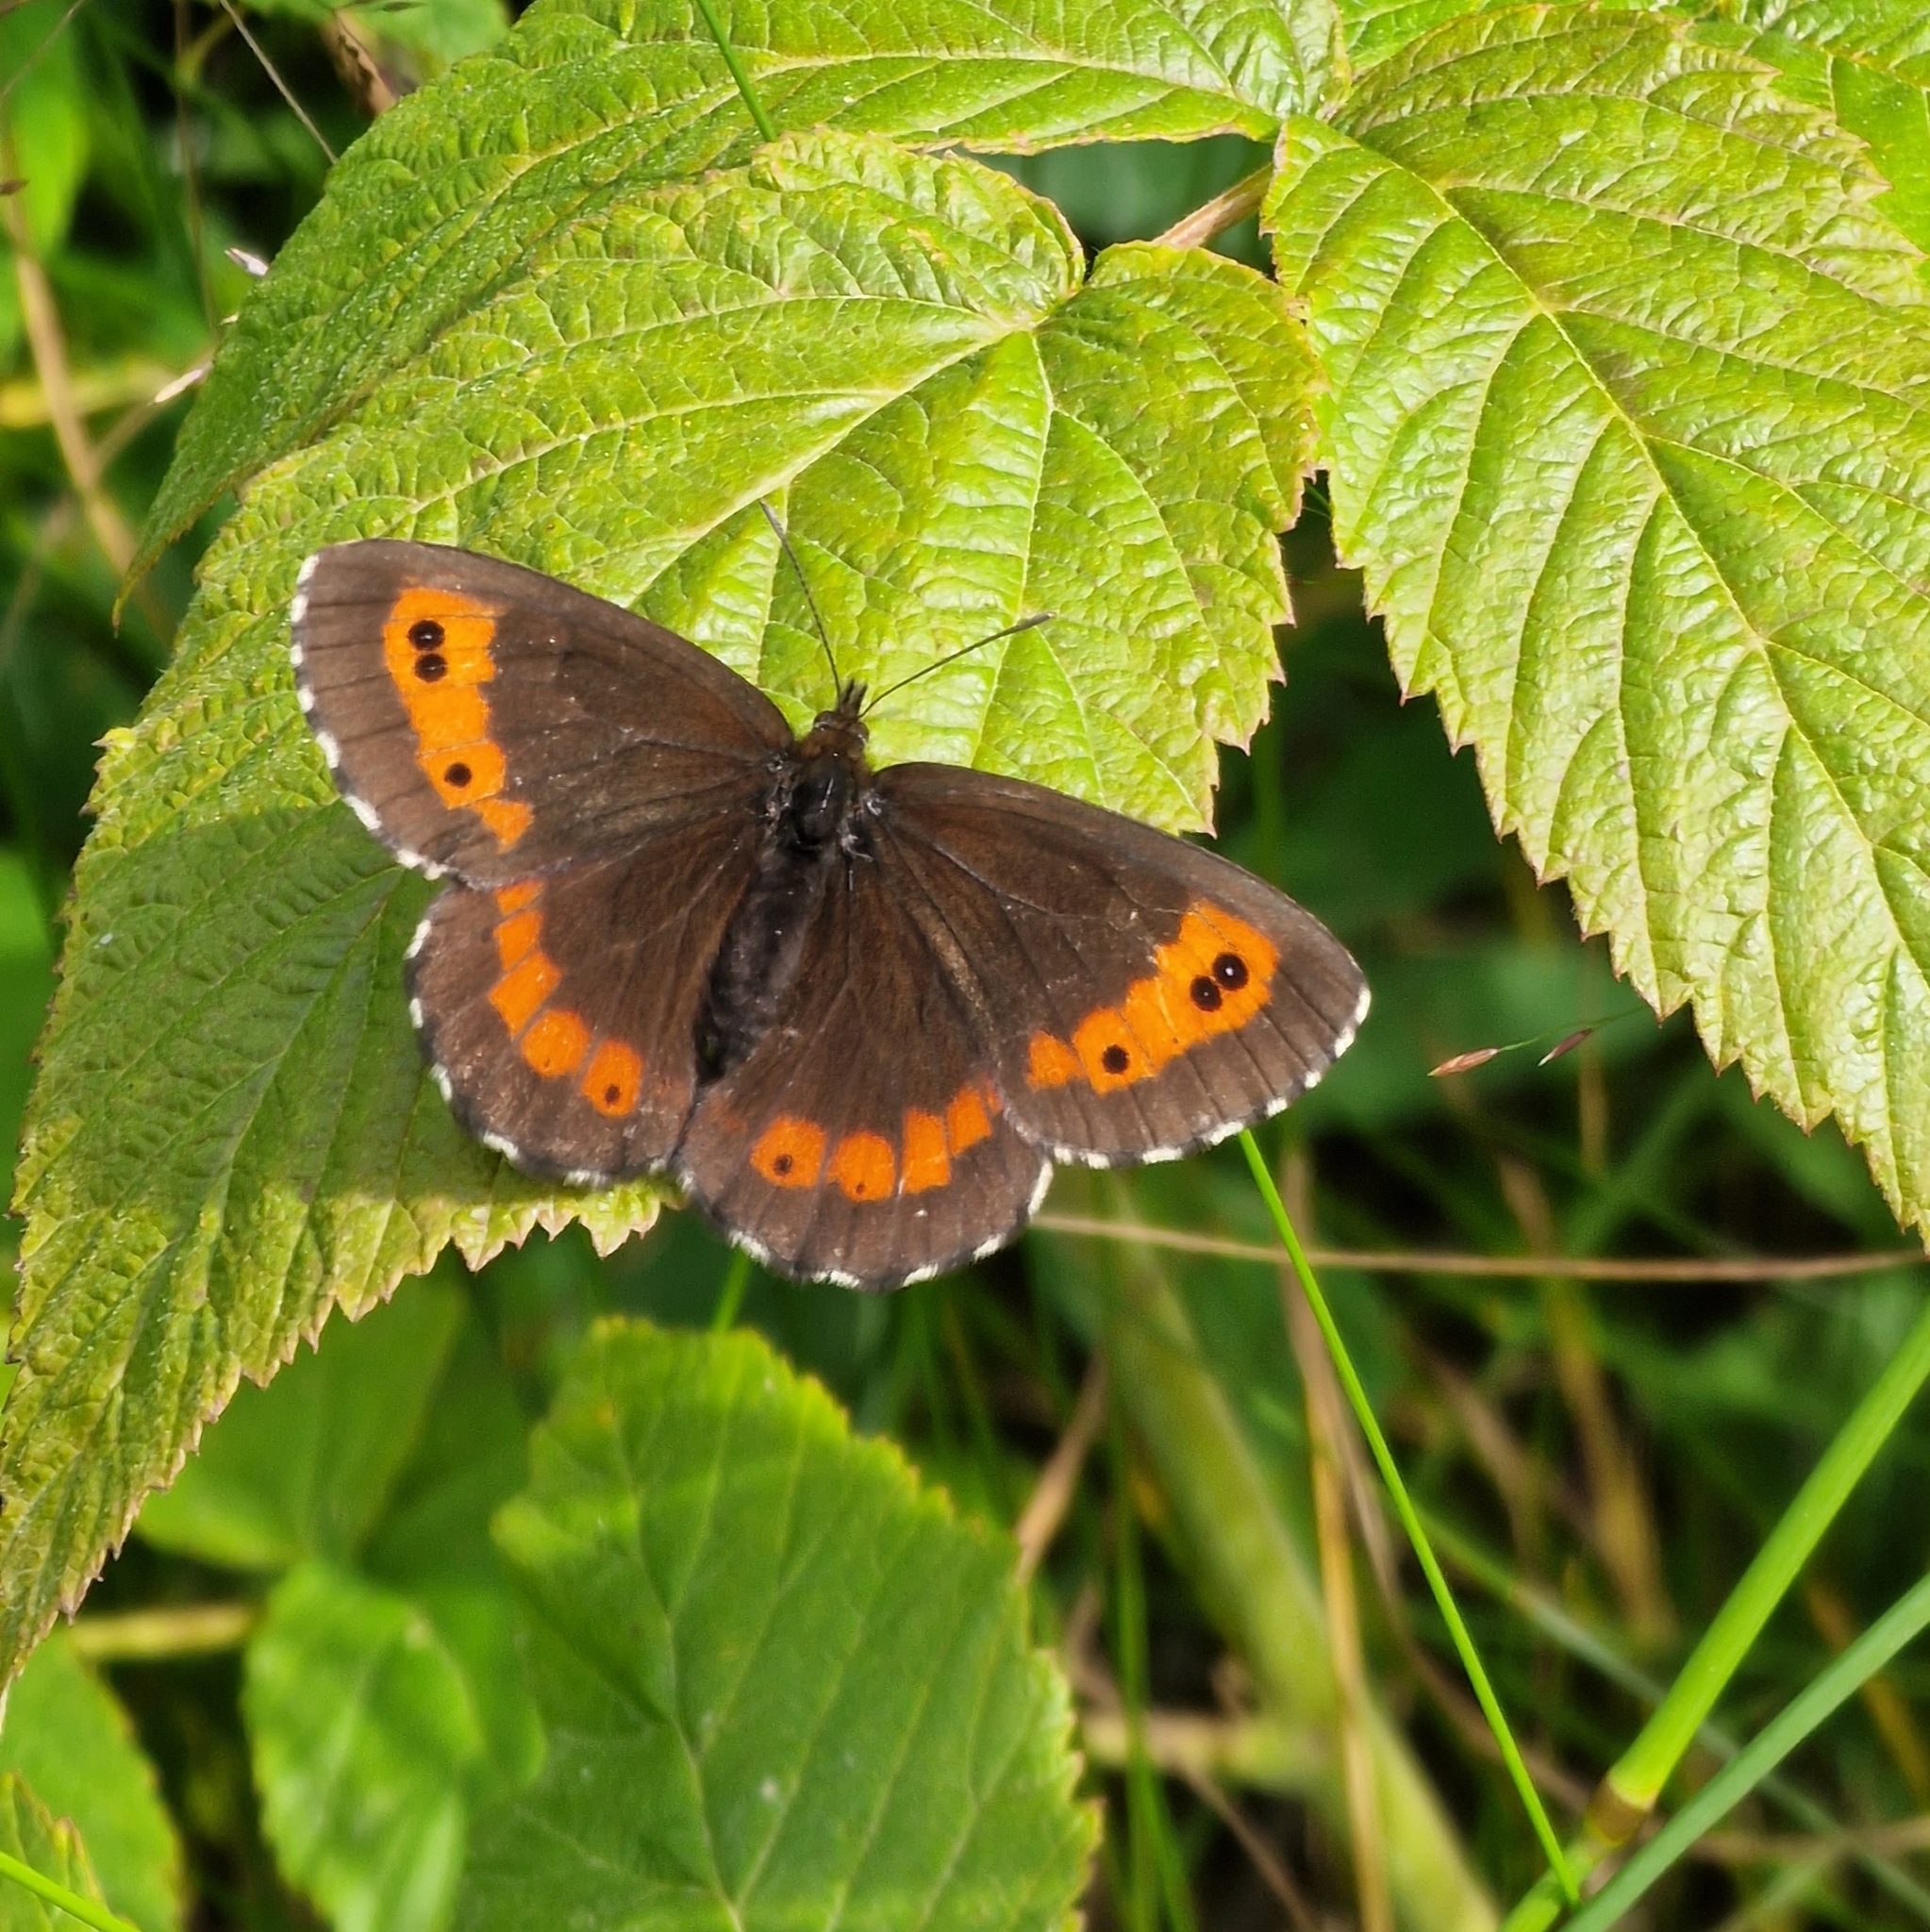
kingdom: Animalia
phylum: Arthropoda
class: Insecta
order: Lepidoptera
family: Nymphalidae
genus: Erebia
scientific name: Erebia ligea
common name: Arran brown
